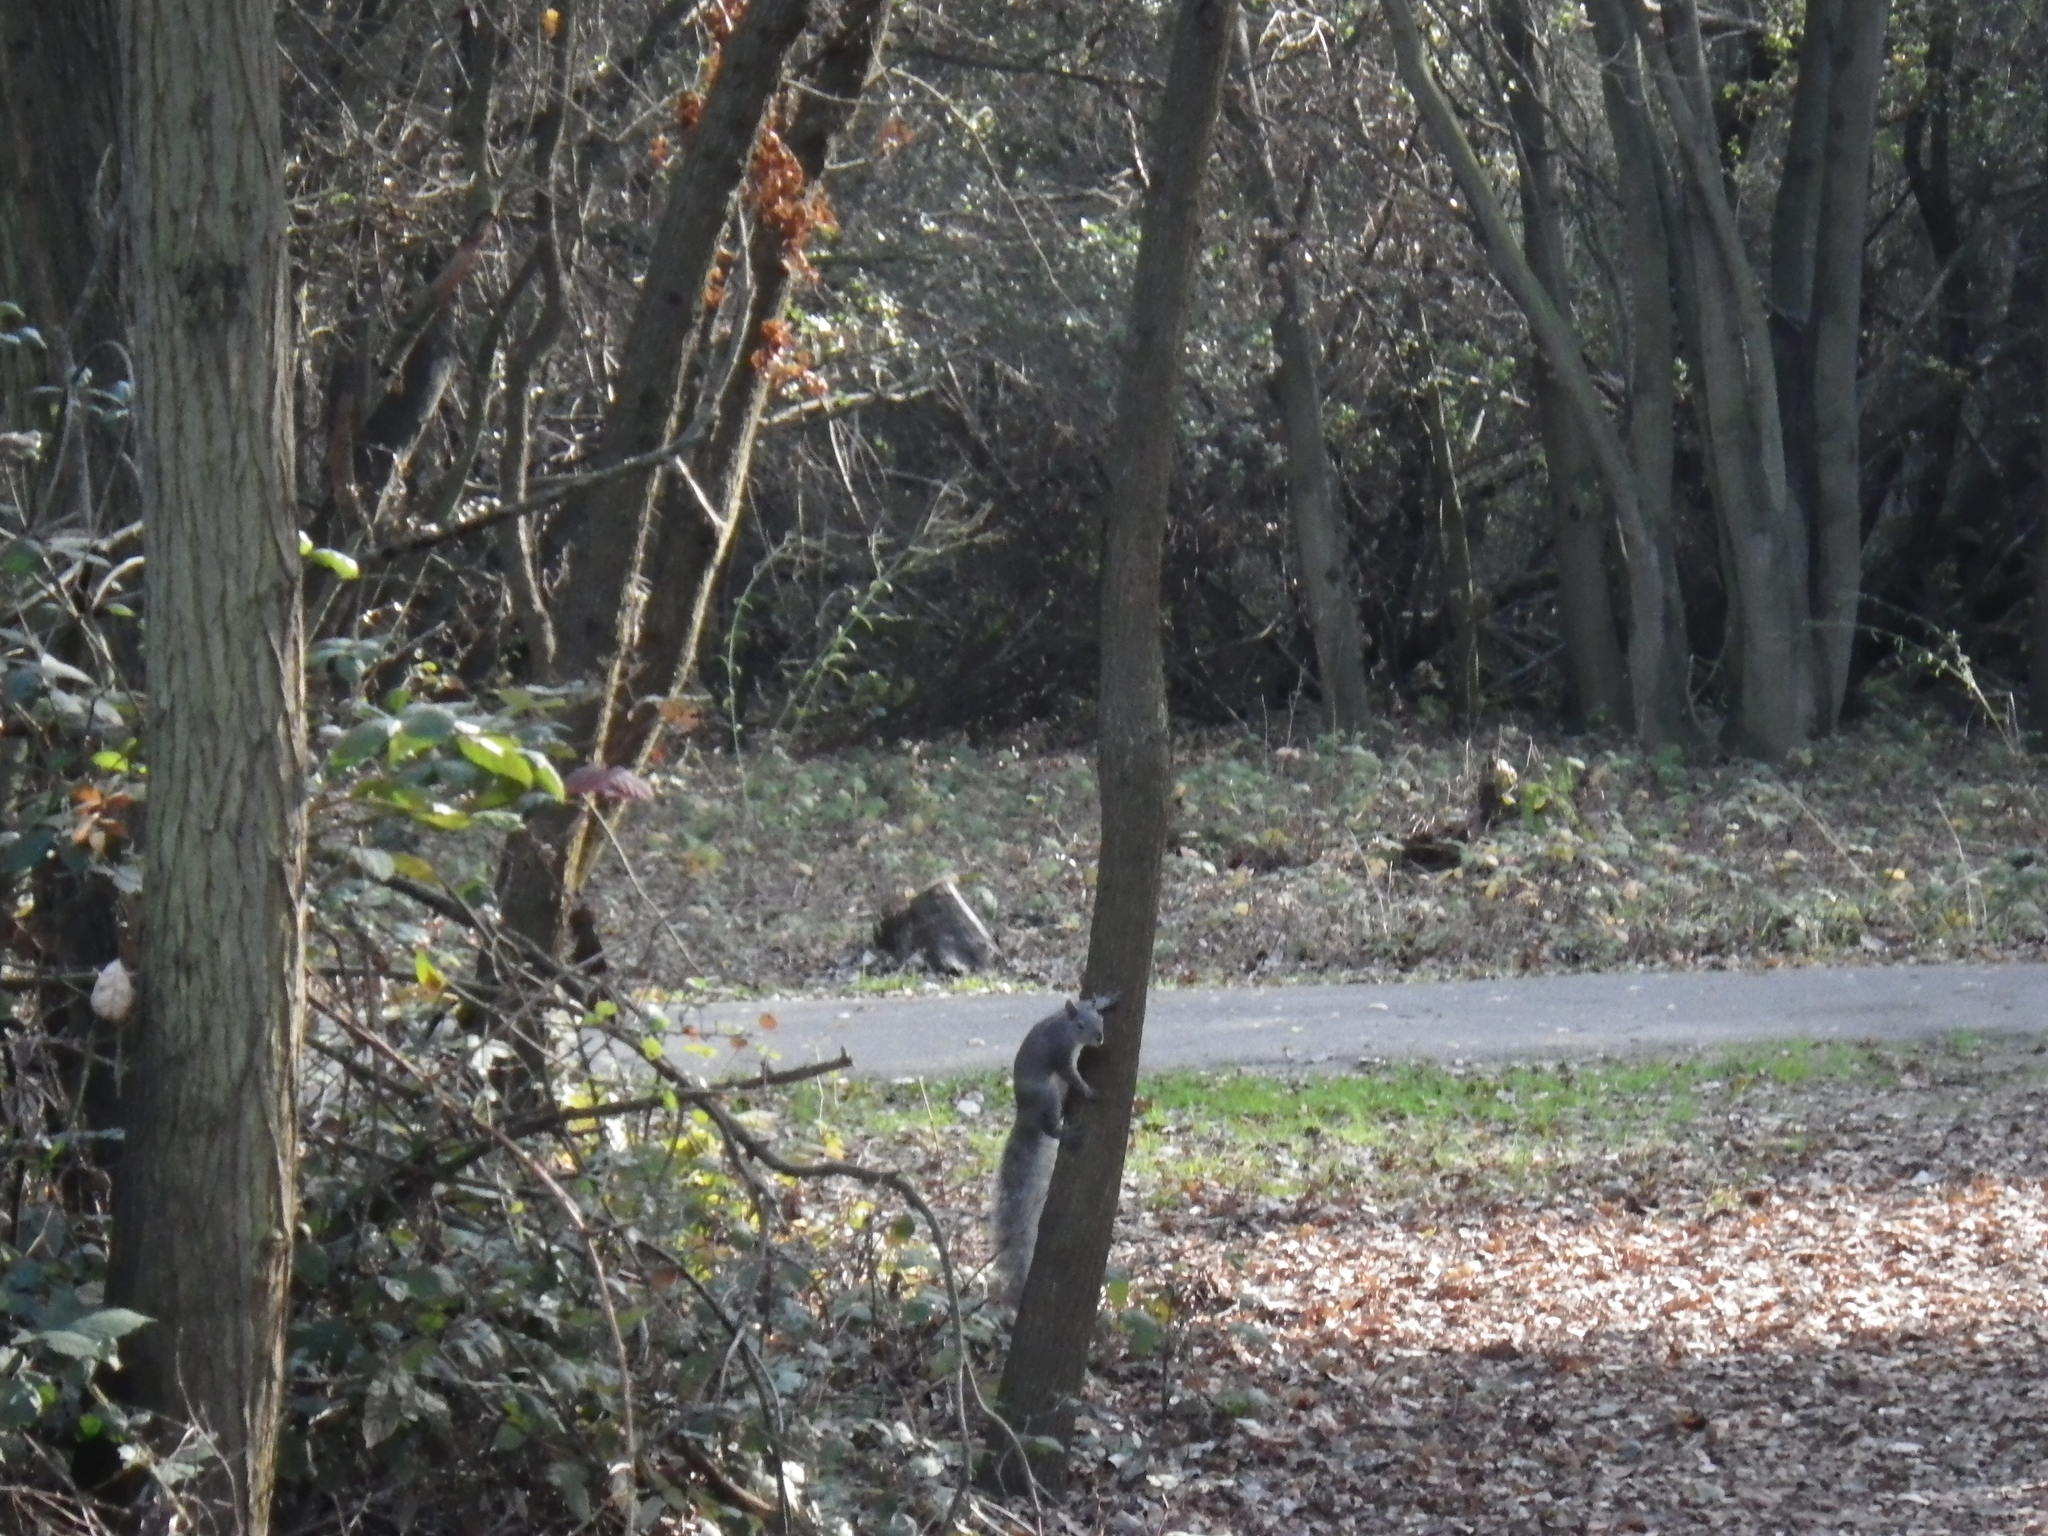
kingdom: Animalia
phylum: Chordata
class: Mammalia
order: Rodentia
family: Sciuridae
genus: Sciurus
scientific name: Sciurus griseus
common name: Western gray squirrel
